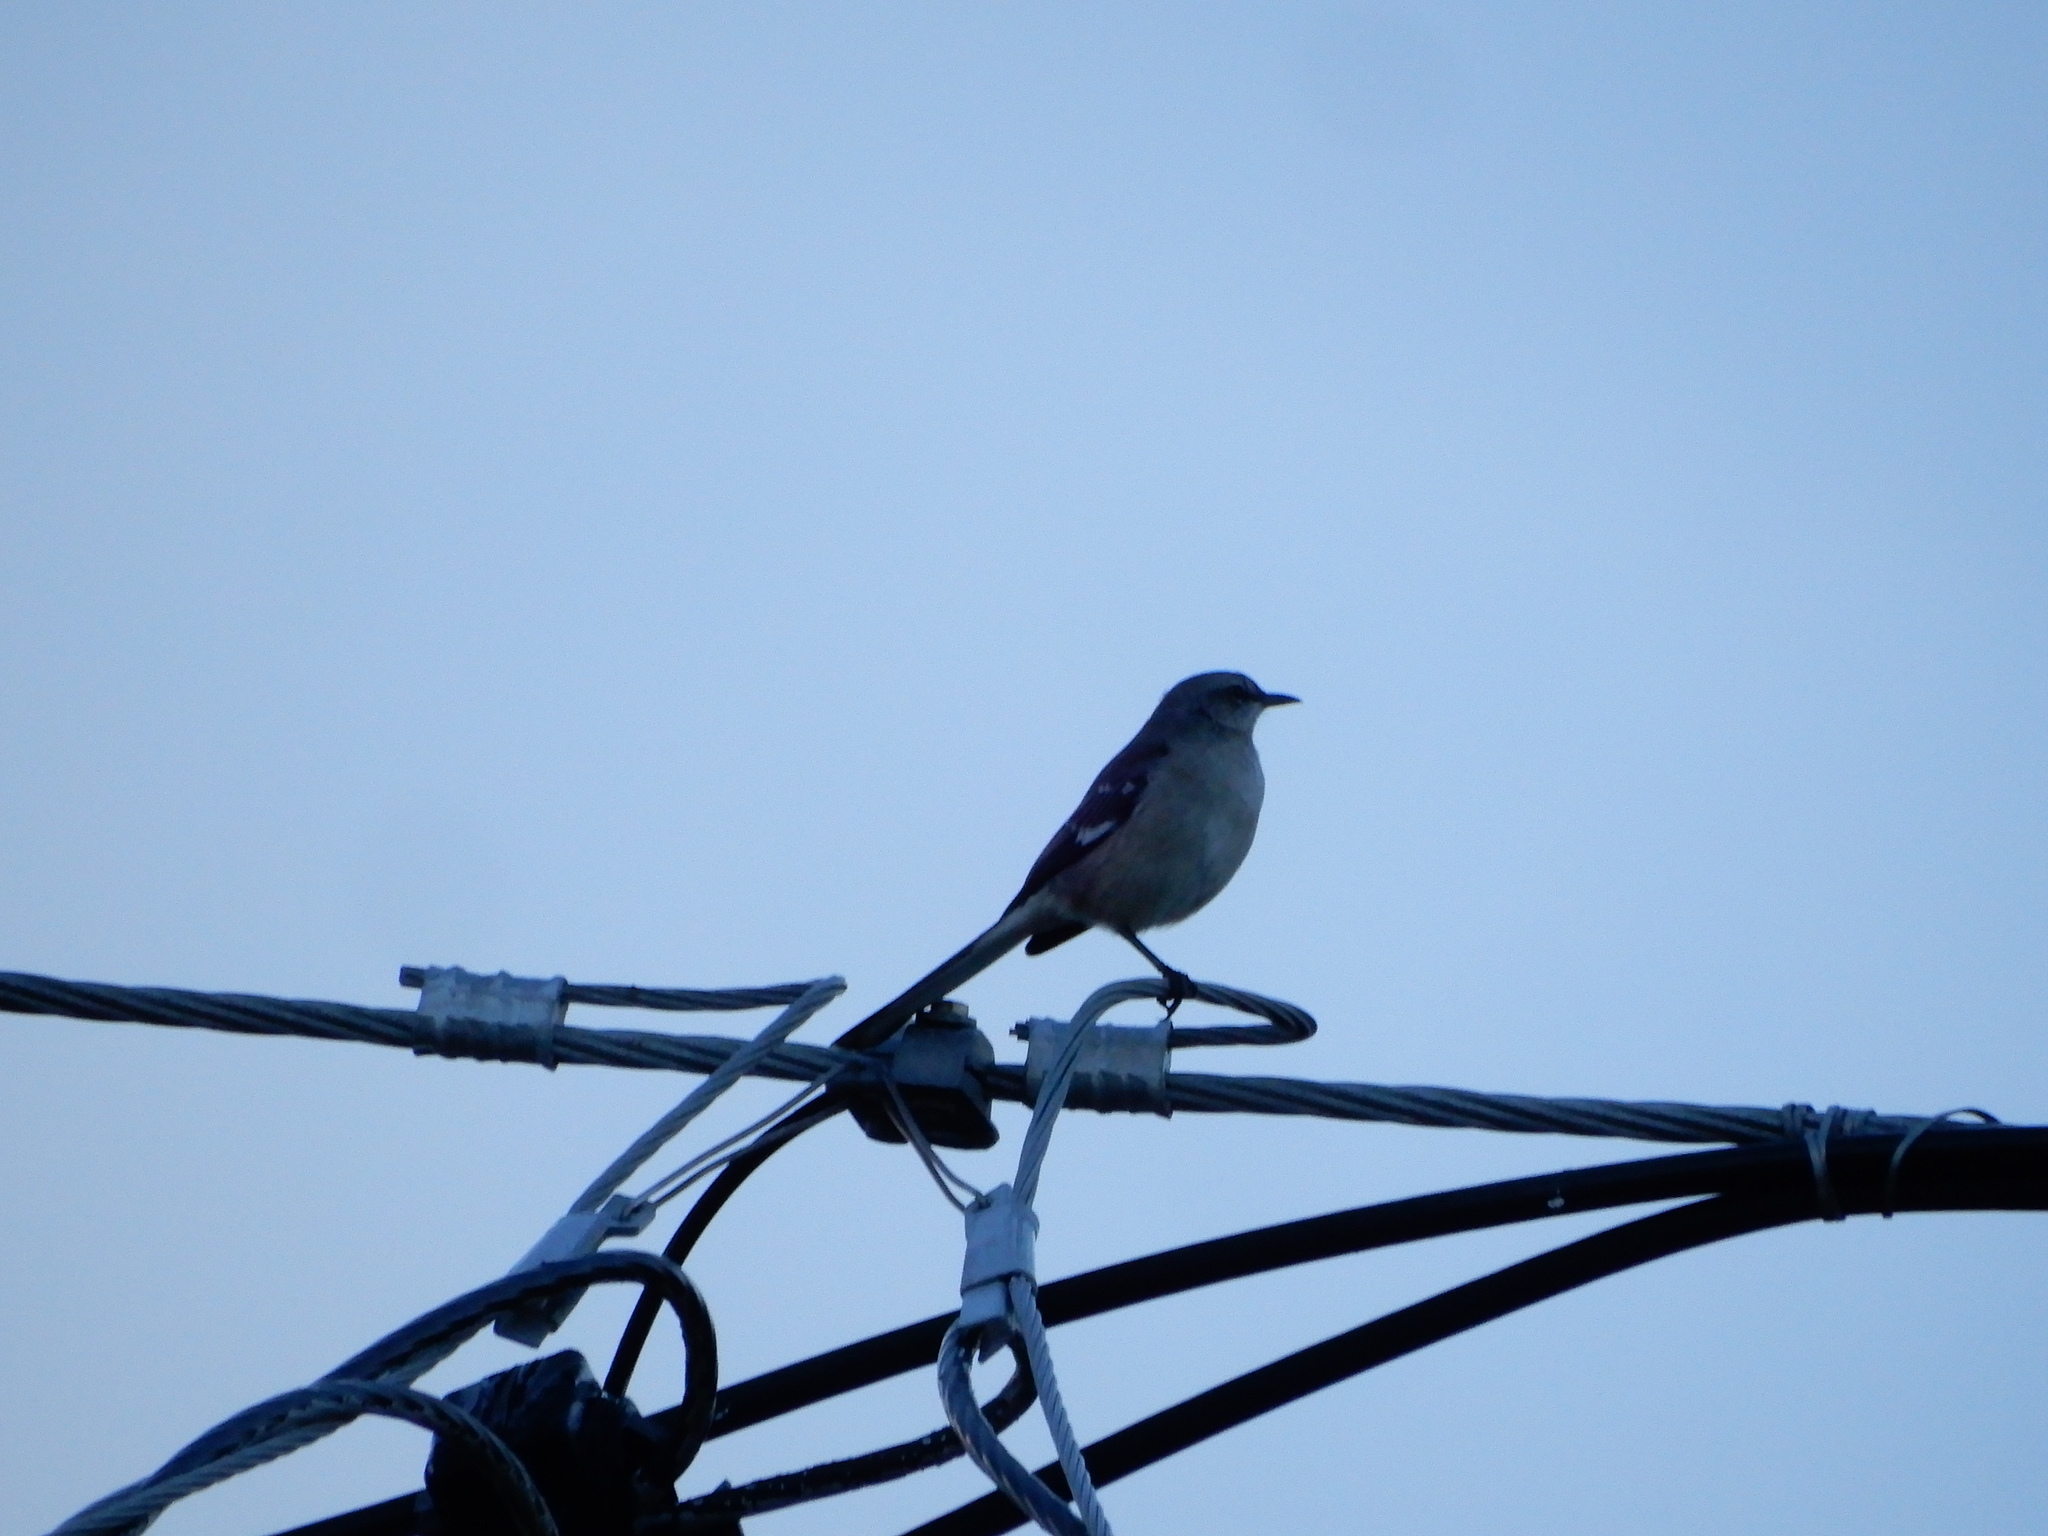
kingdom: Animalia
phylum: Chordata
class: Aves
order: Passeriformes
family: Mimidae
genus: Mimus
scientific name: Mimus polyglottos
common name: Northern mockingbird
